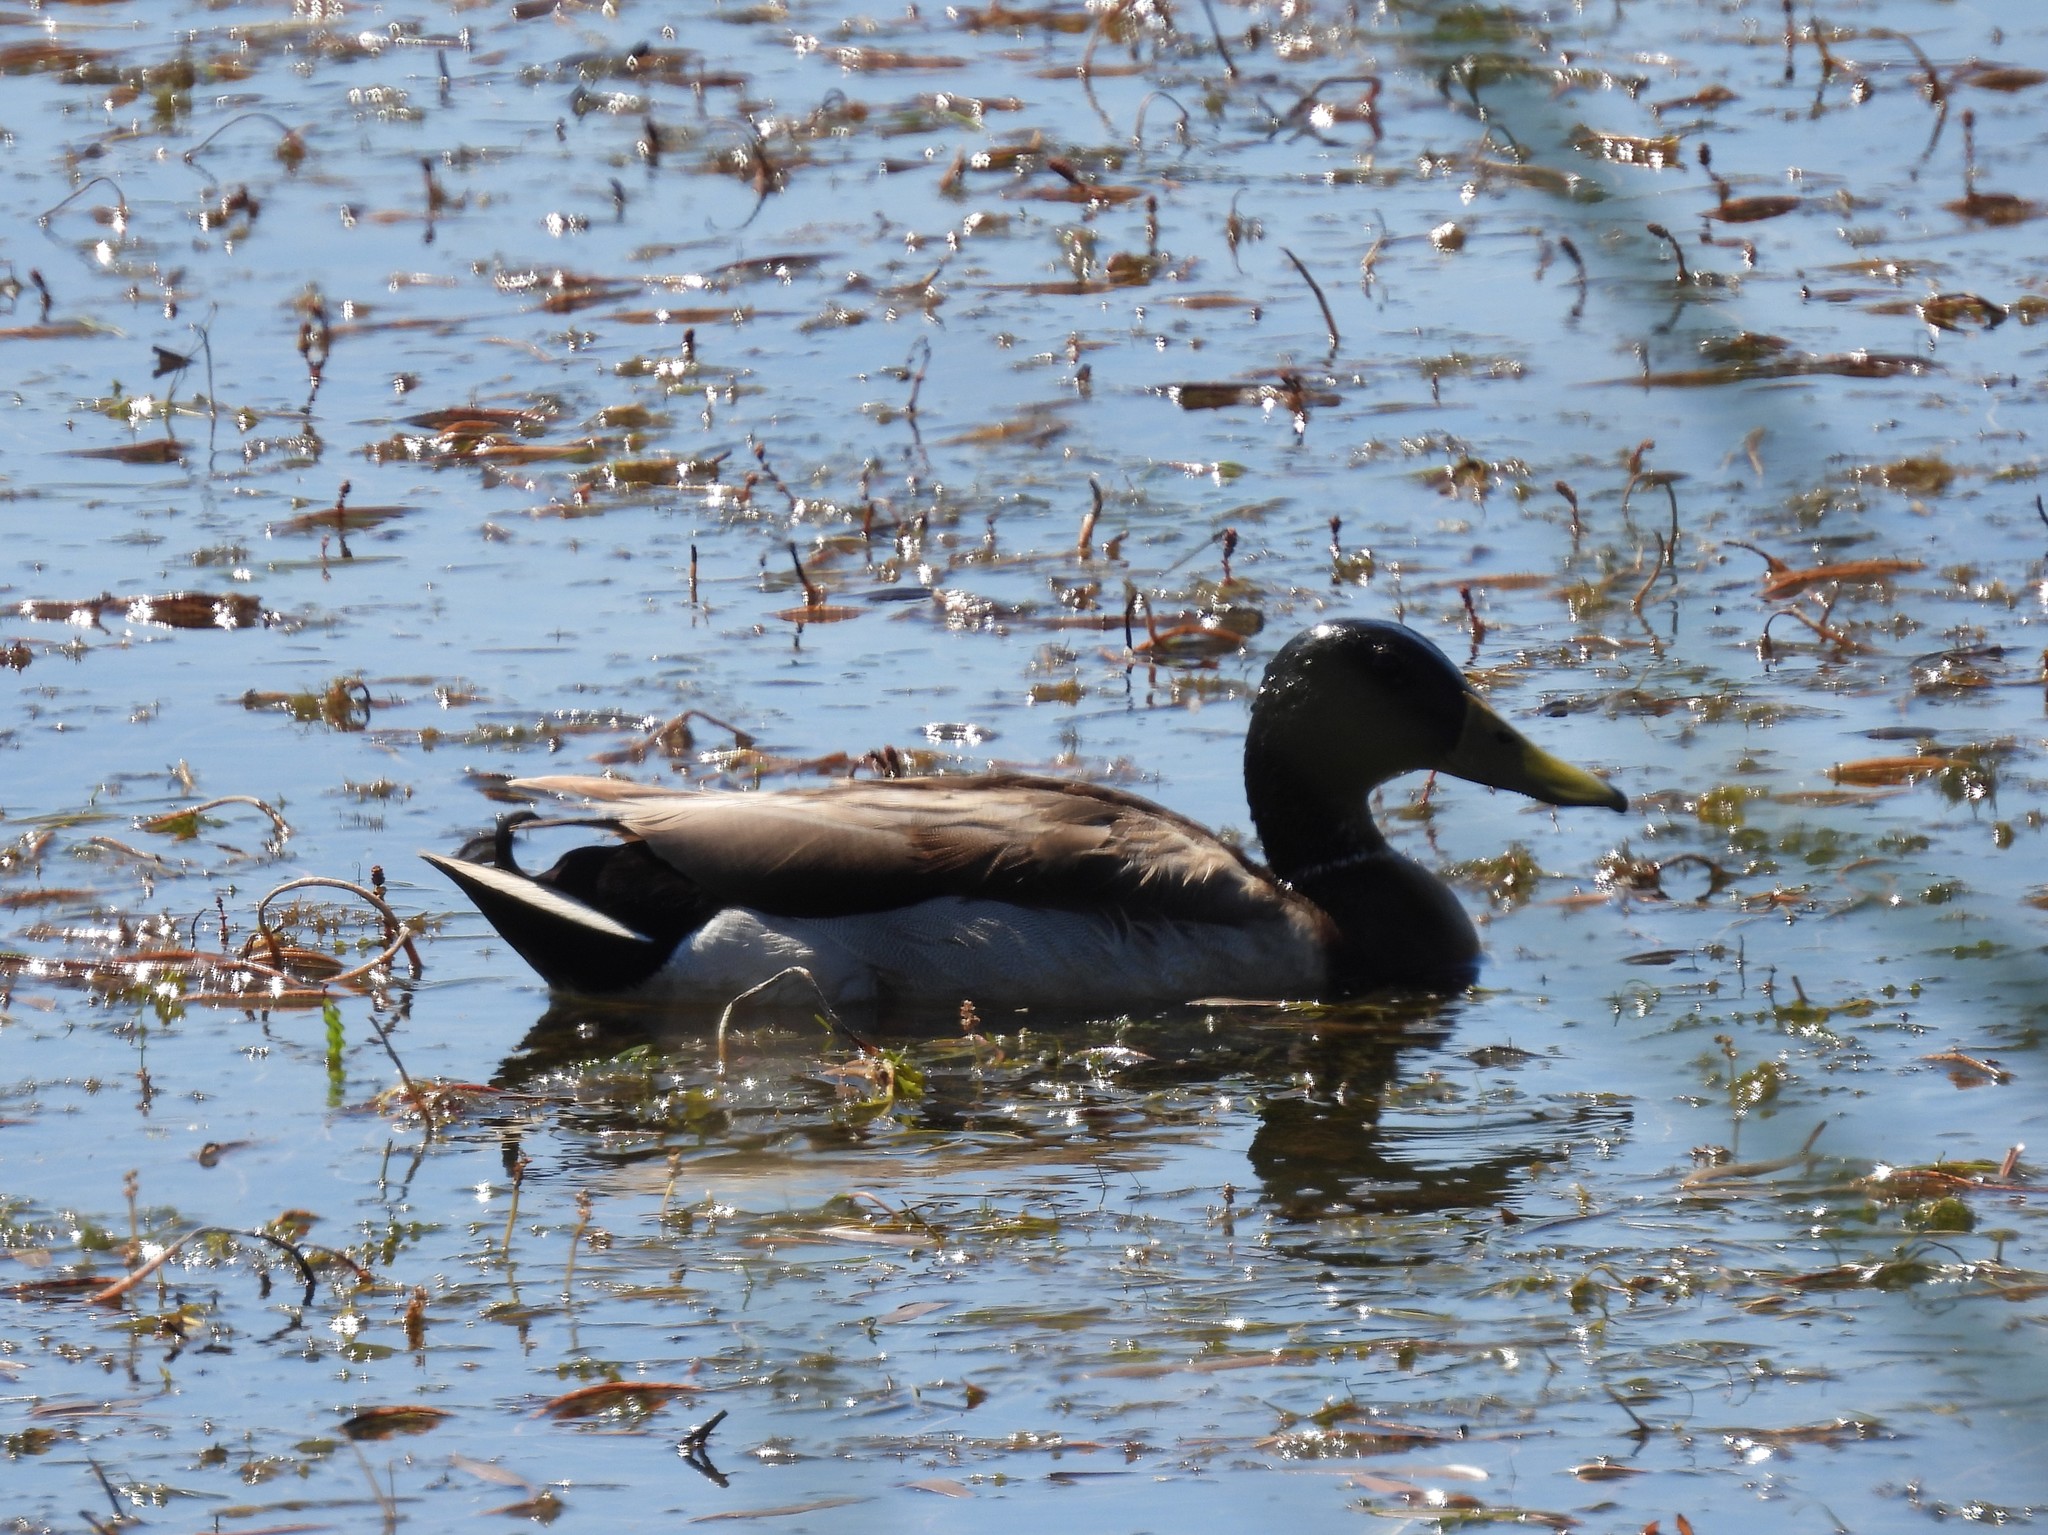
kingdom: Animalia
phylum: Chordata
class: Aves
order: Anseriformes
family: Anatidae
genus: Anas
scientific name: Anas platyrhynchos
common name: Mallard
